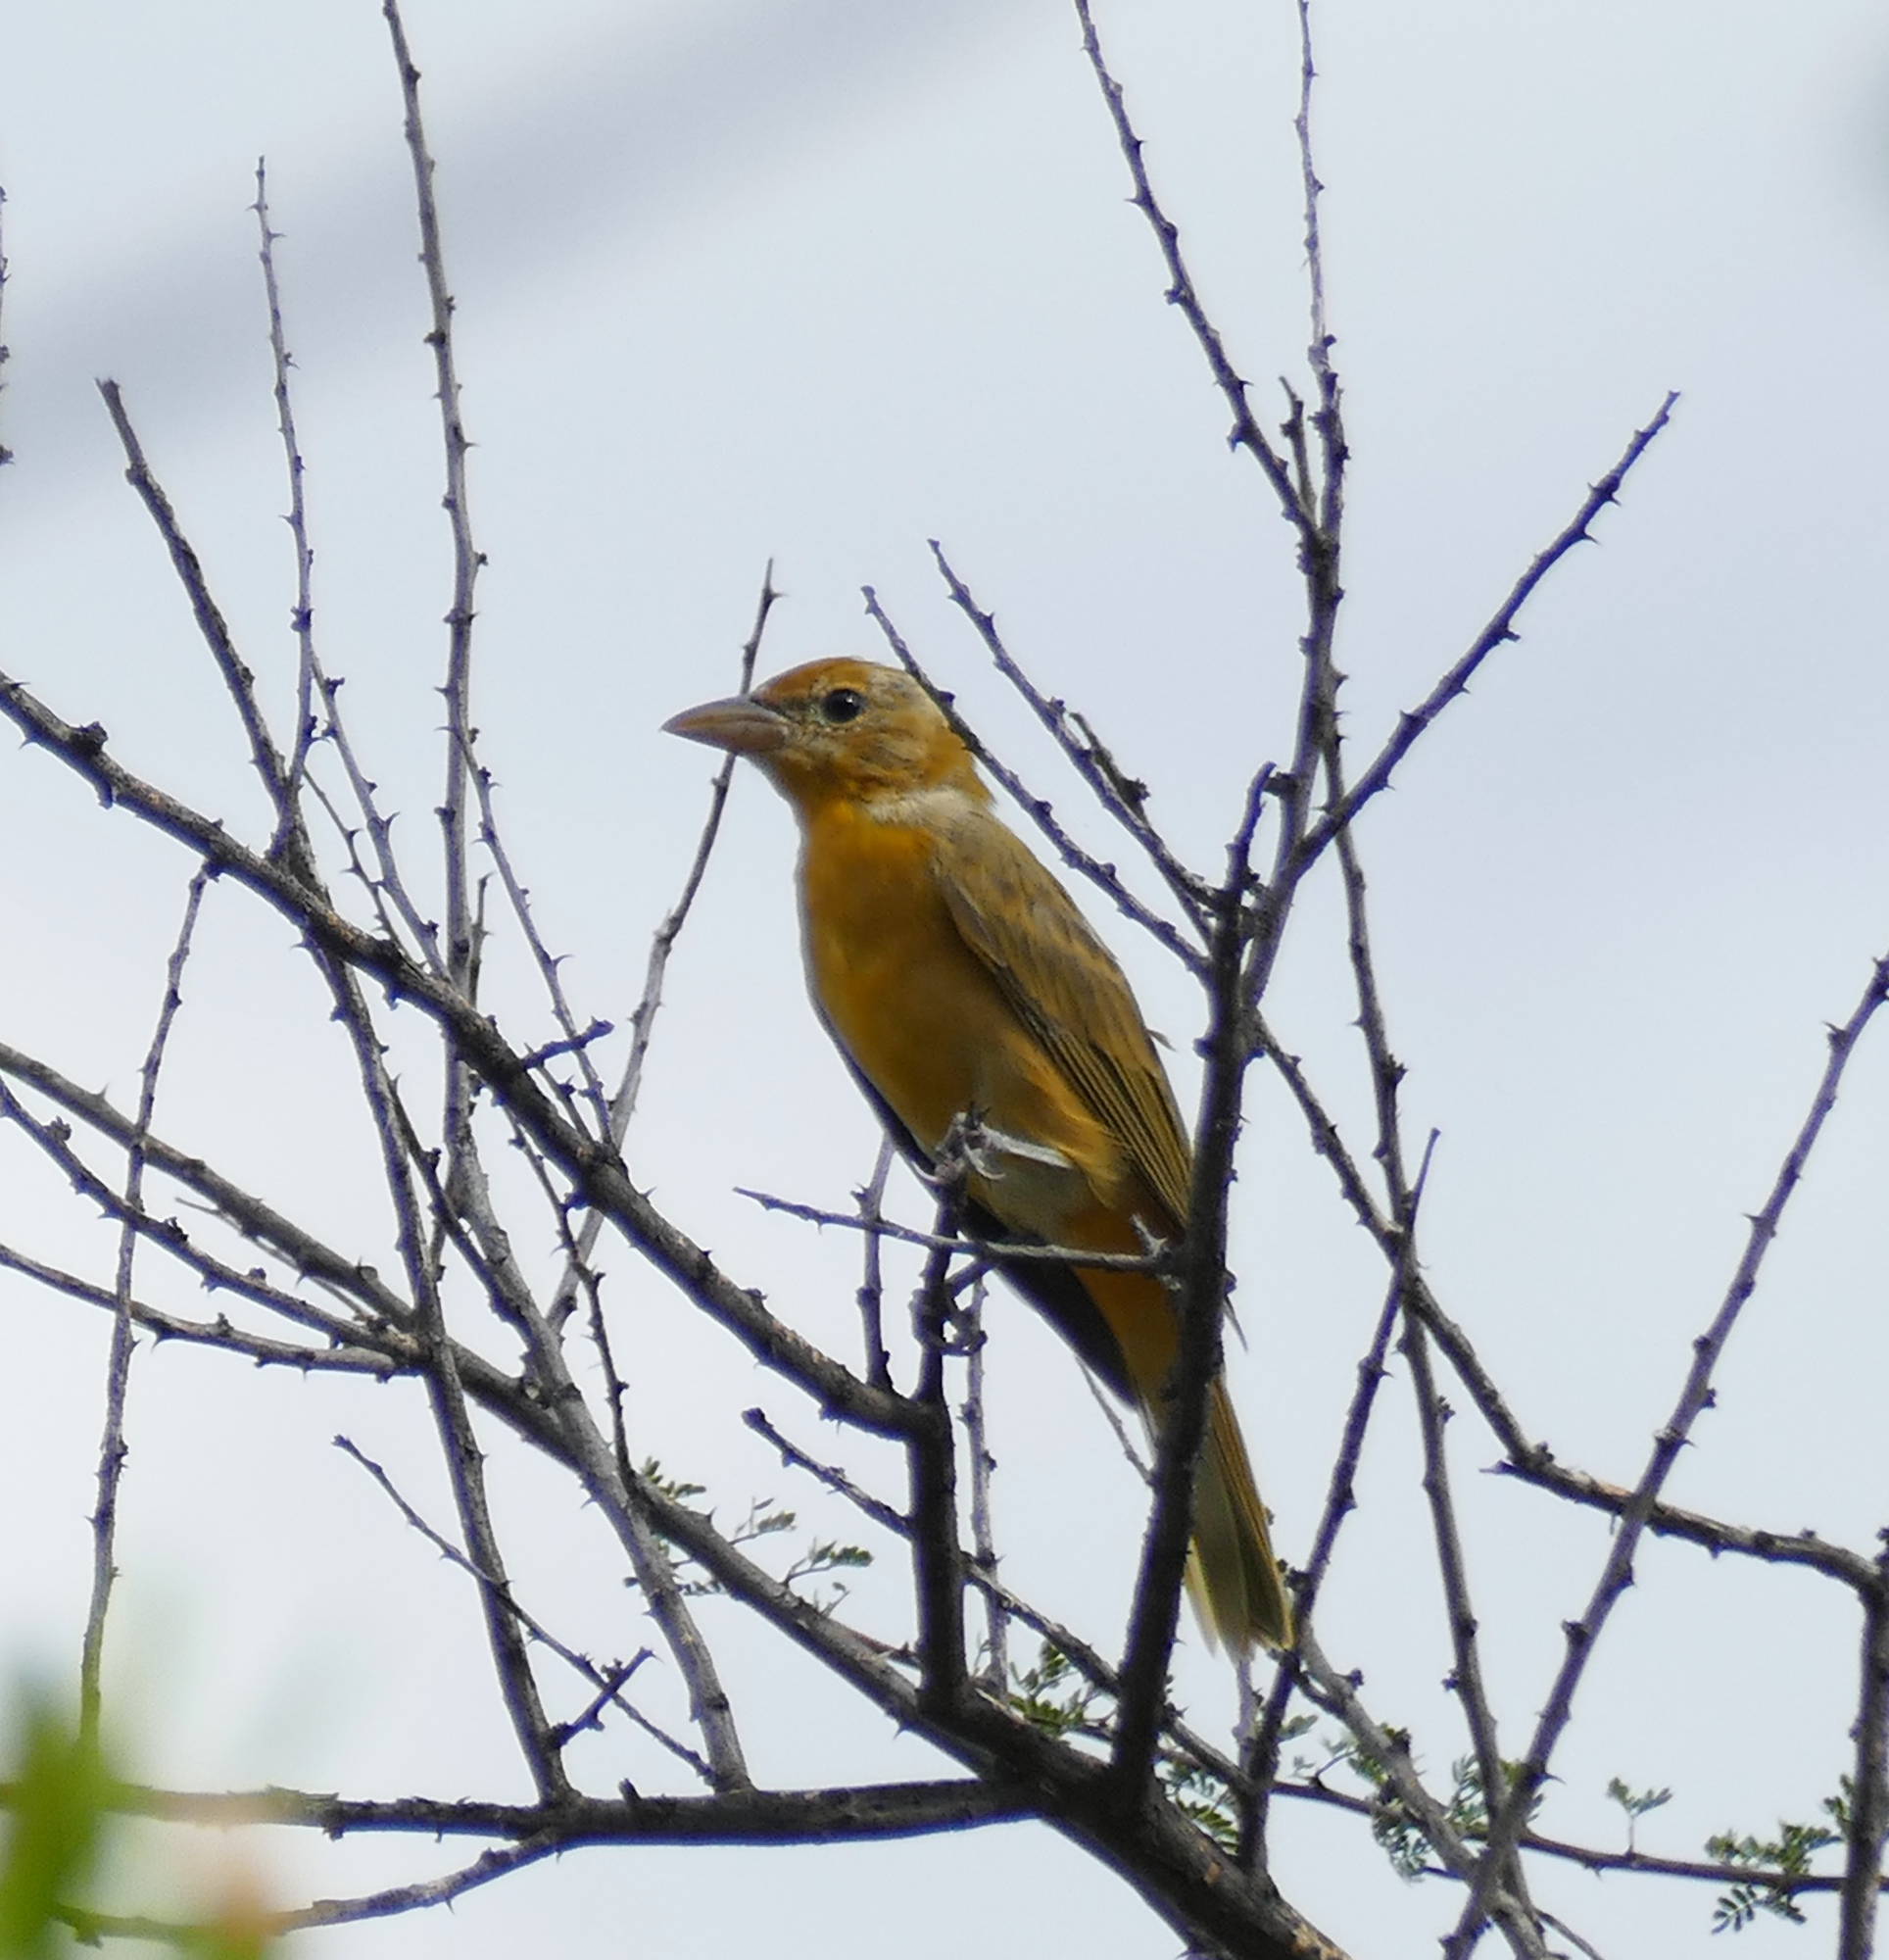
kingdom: Animalia
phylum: Chordata
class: Aves
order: Passeriformes
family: Cardinalidae
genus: Piranga
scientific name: Piranga rubra
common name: Summer tanager
